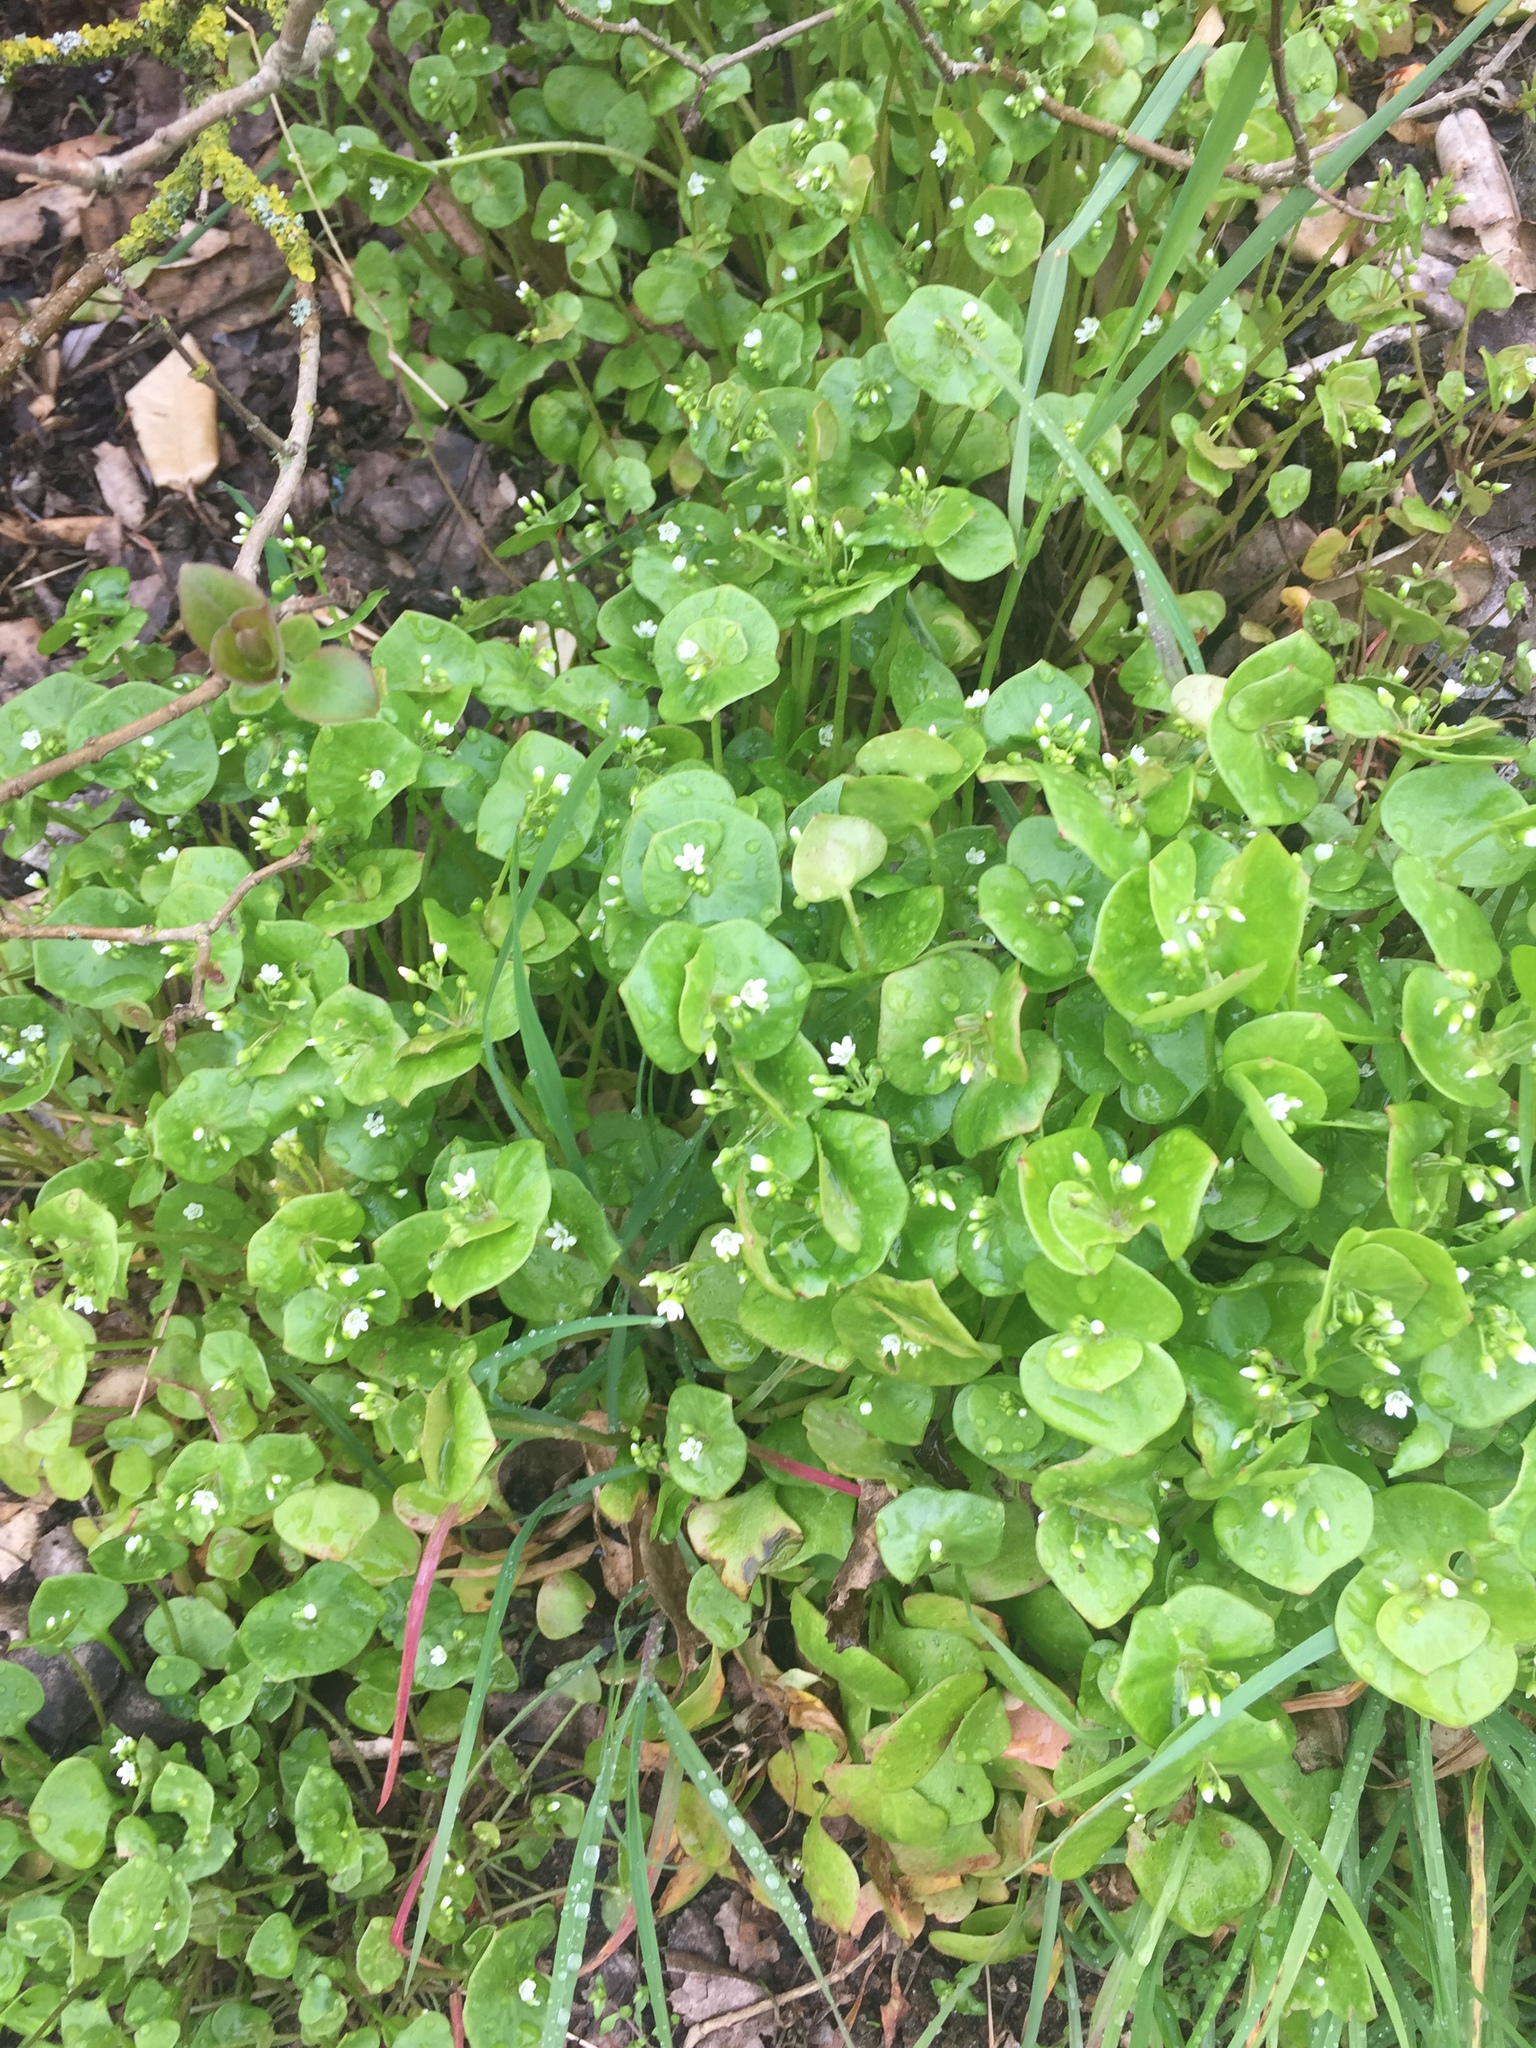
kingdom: Plantae
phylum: Tracheophyta
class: Magnoliopsida
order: Caryophyllales
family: Montiaceae
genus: Claytonia
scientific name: Claytonia perfoliata
